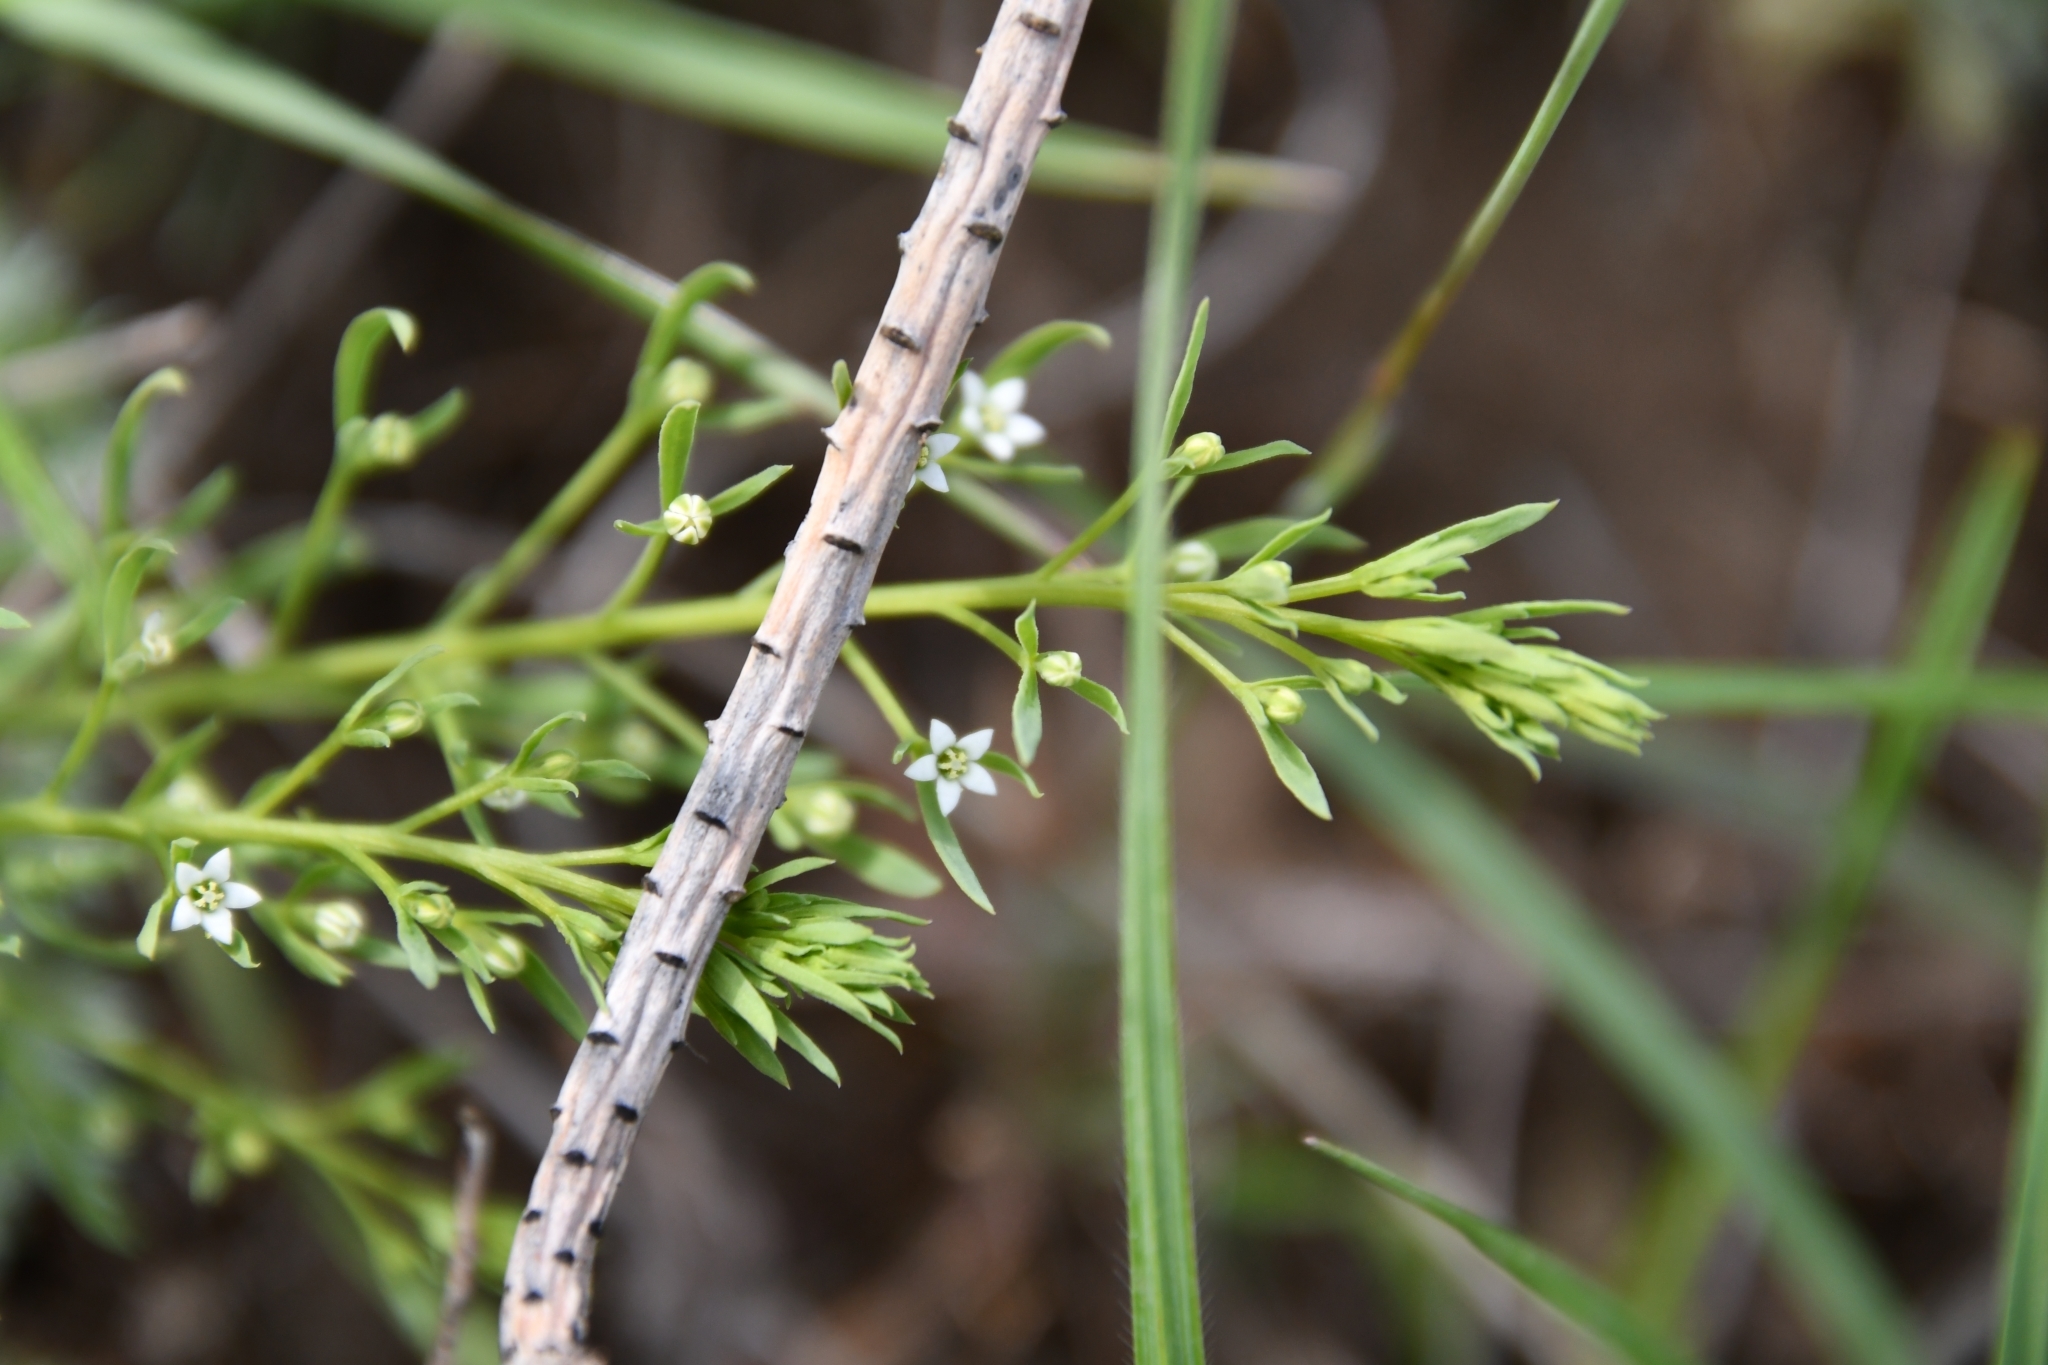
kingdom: Plantae
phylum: Tracheophyta
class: Magnoliopsida
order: Santalales
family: Thesiaceae
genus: Thesium
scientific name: Thesium ramosum
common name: Field thesium
